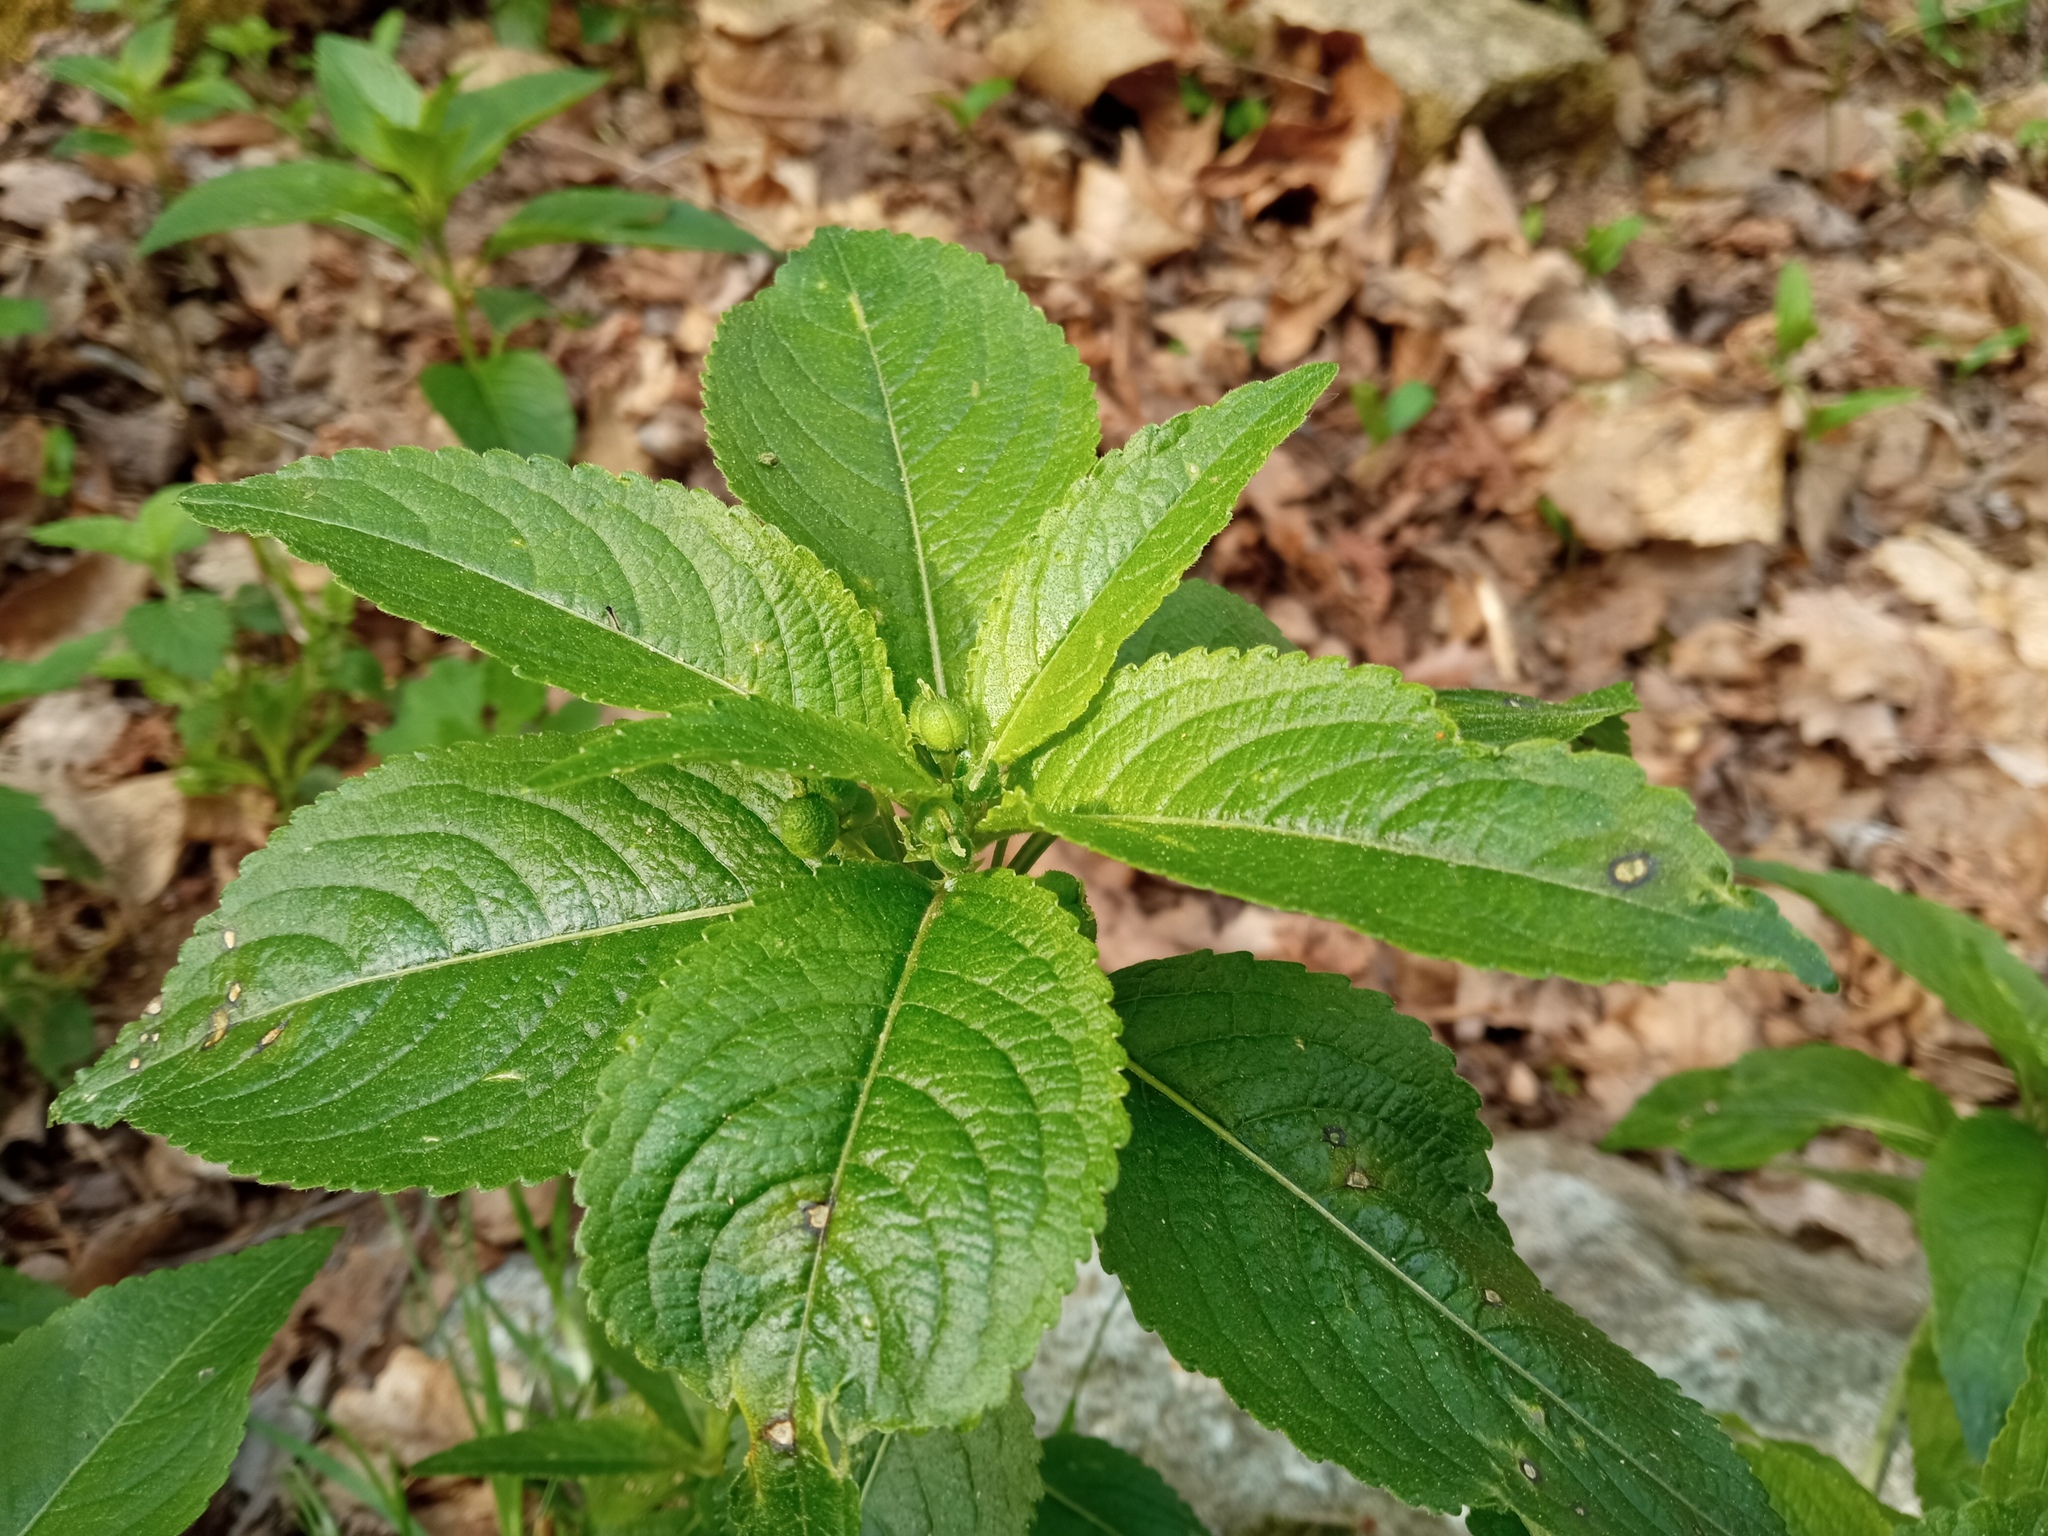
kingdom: Plantae
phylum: Tracheophyta
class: Magnoliopsida
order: Malpighiales
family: Euphorbiaceae
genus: Mercurialis
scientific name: Mercurialis perennis
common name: Dog mercury
